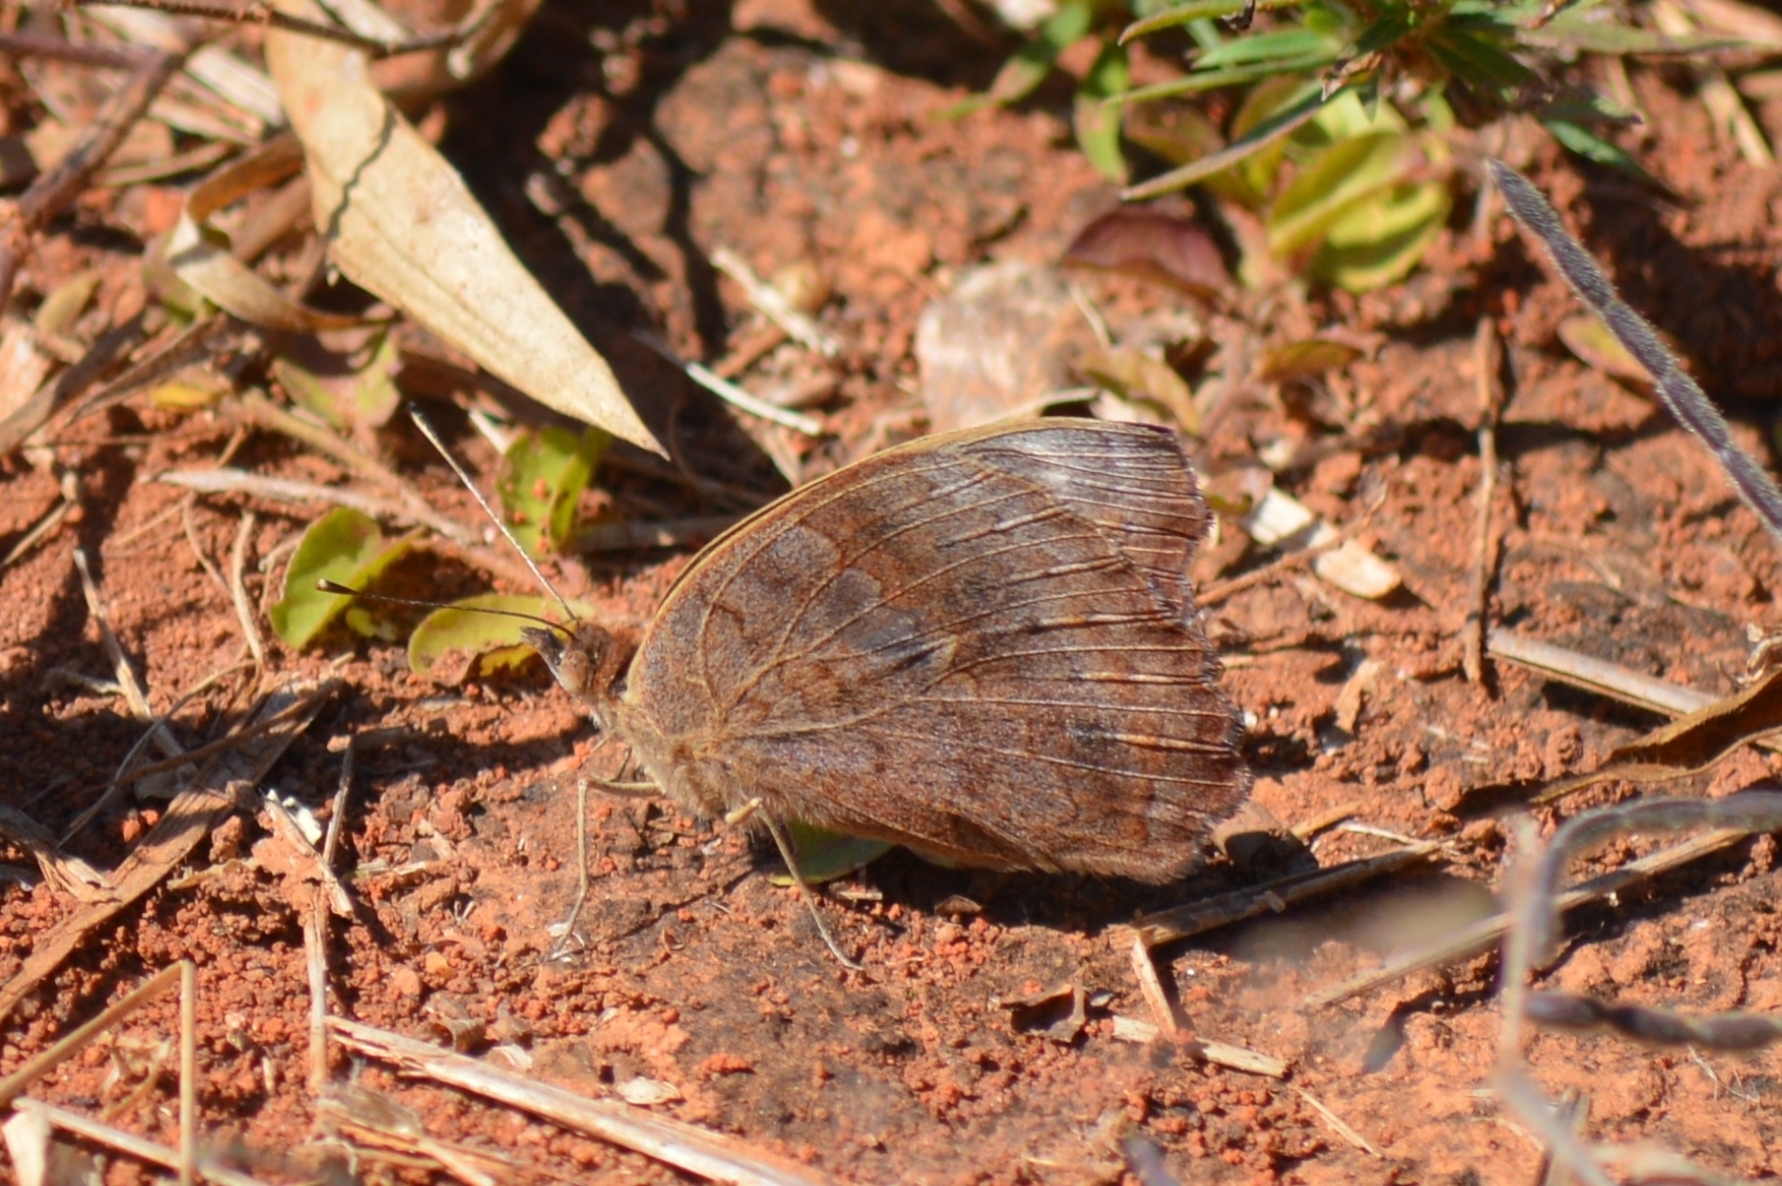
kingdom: Animalia
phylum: Arthropoda
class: Insecta
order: Lepidoptera
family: Nymphalidae
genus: Junonia
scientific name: Junonia evarete
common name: Black mangrove buckeye
